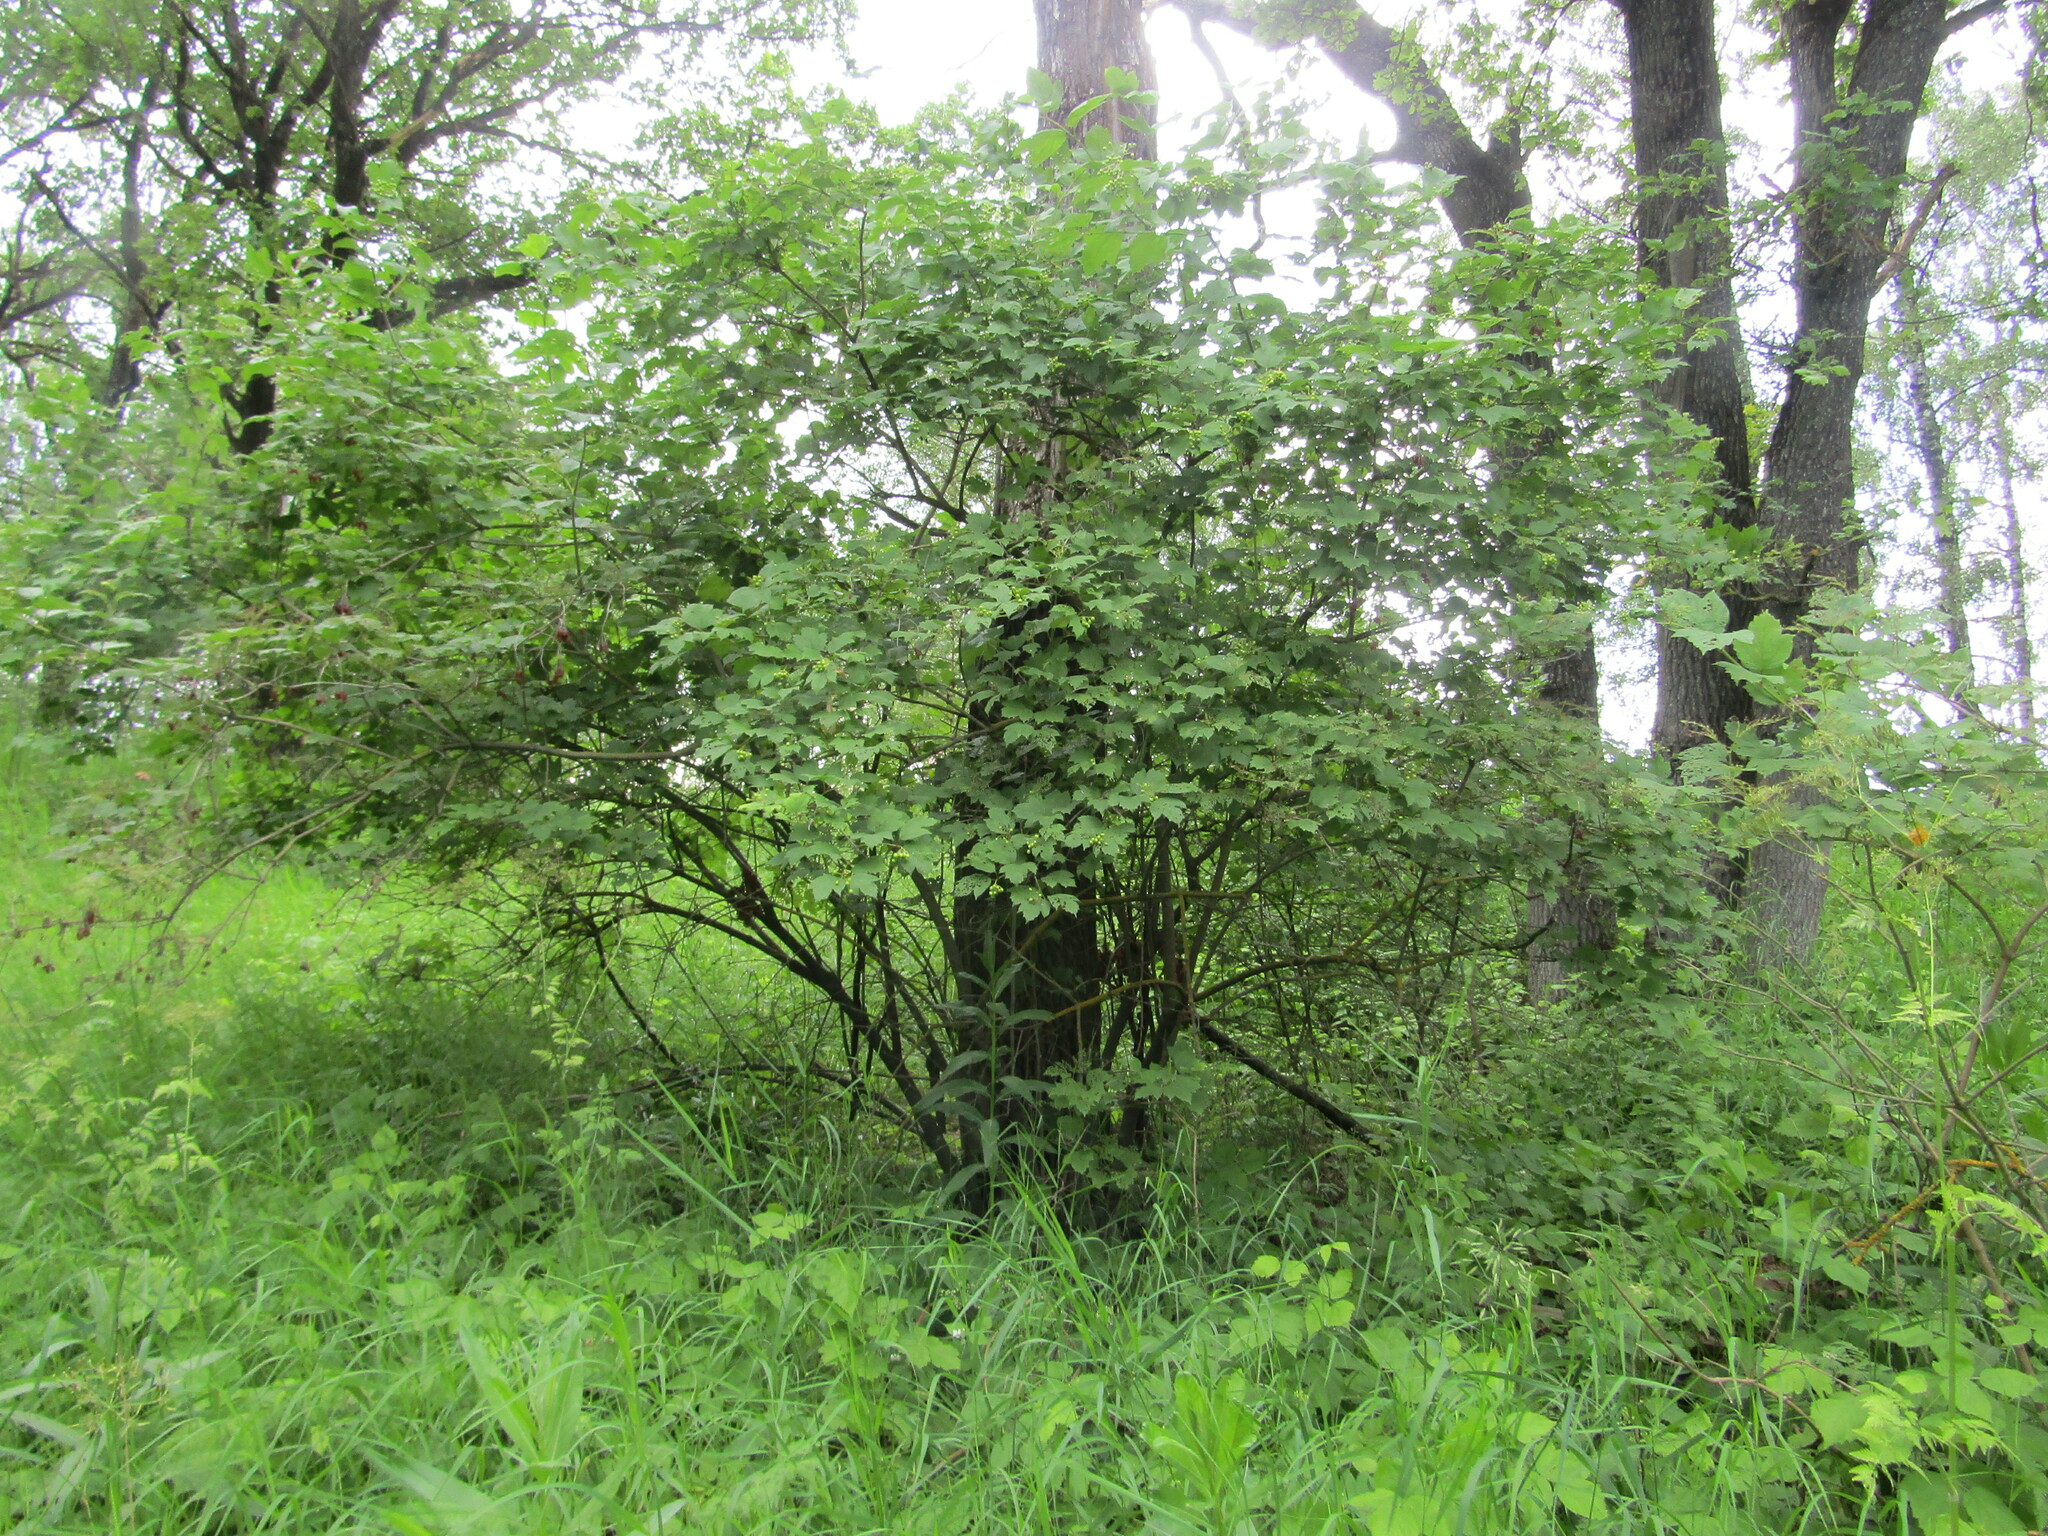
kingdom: Plantae
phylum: Tracheophyta
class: Magnoliopsida
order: Dipsacales
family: Viburnaceae
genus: Viburnum
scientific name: Viburnum opulus
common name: Guelder-rose
